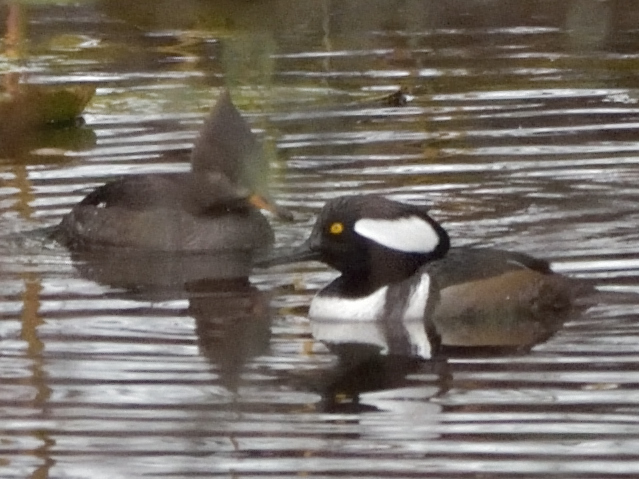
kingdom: Animalia
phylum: Chordata
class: Aves
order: Anseriformes
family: Anatidae
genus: Lophodytes
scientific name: Lophodytes cucullatus
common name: Hooded merganser
